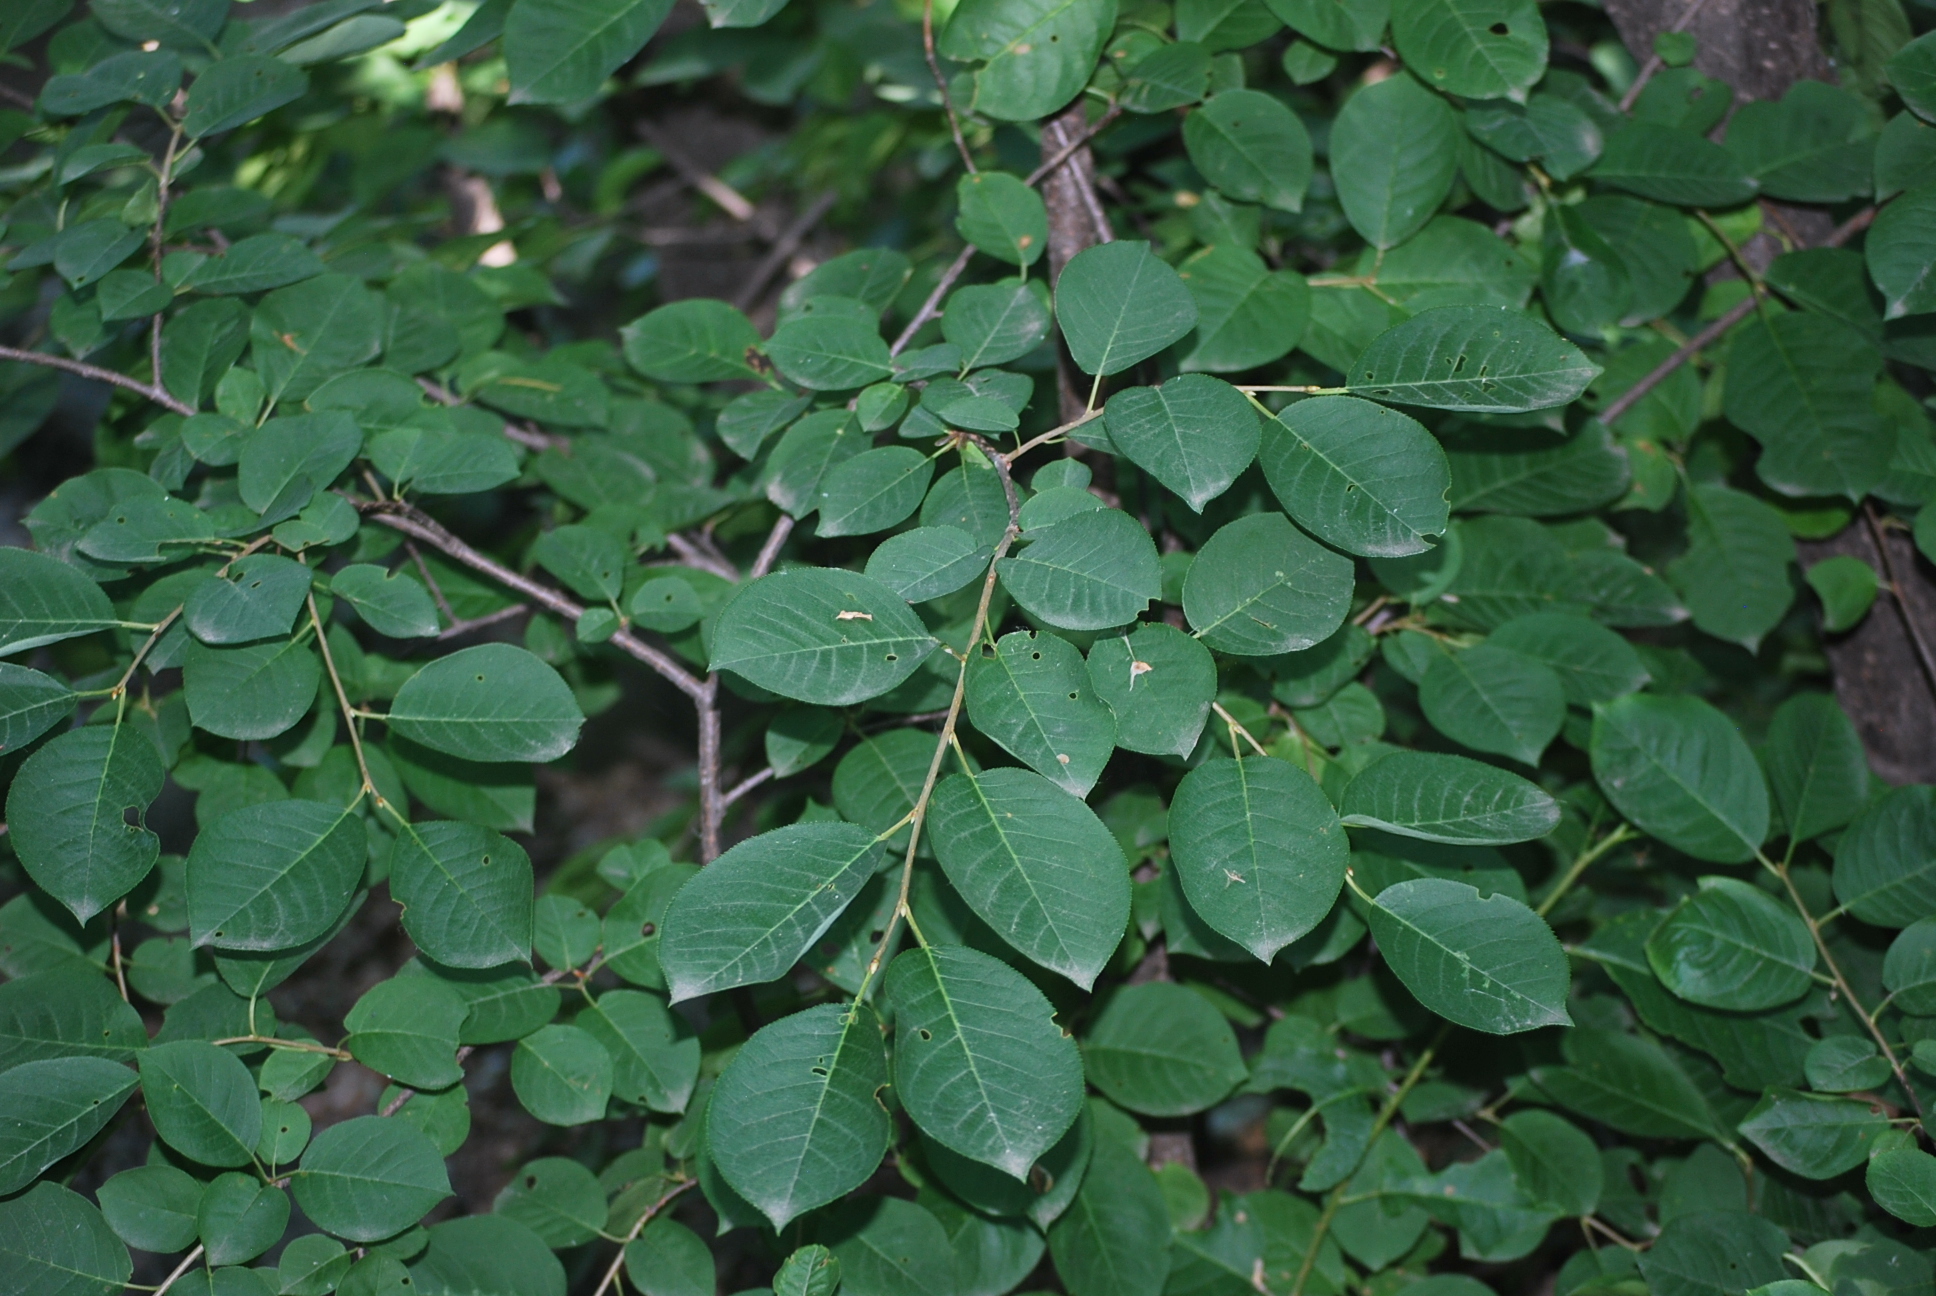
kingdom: Plantae
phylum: Tracheophyta
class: Magnoliopsida
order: Rosales
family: Rosaceae
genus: Prunus
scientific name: Prunus virginiana
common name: Chokecherry
